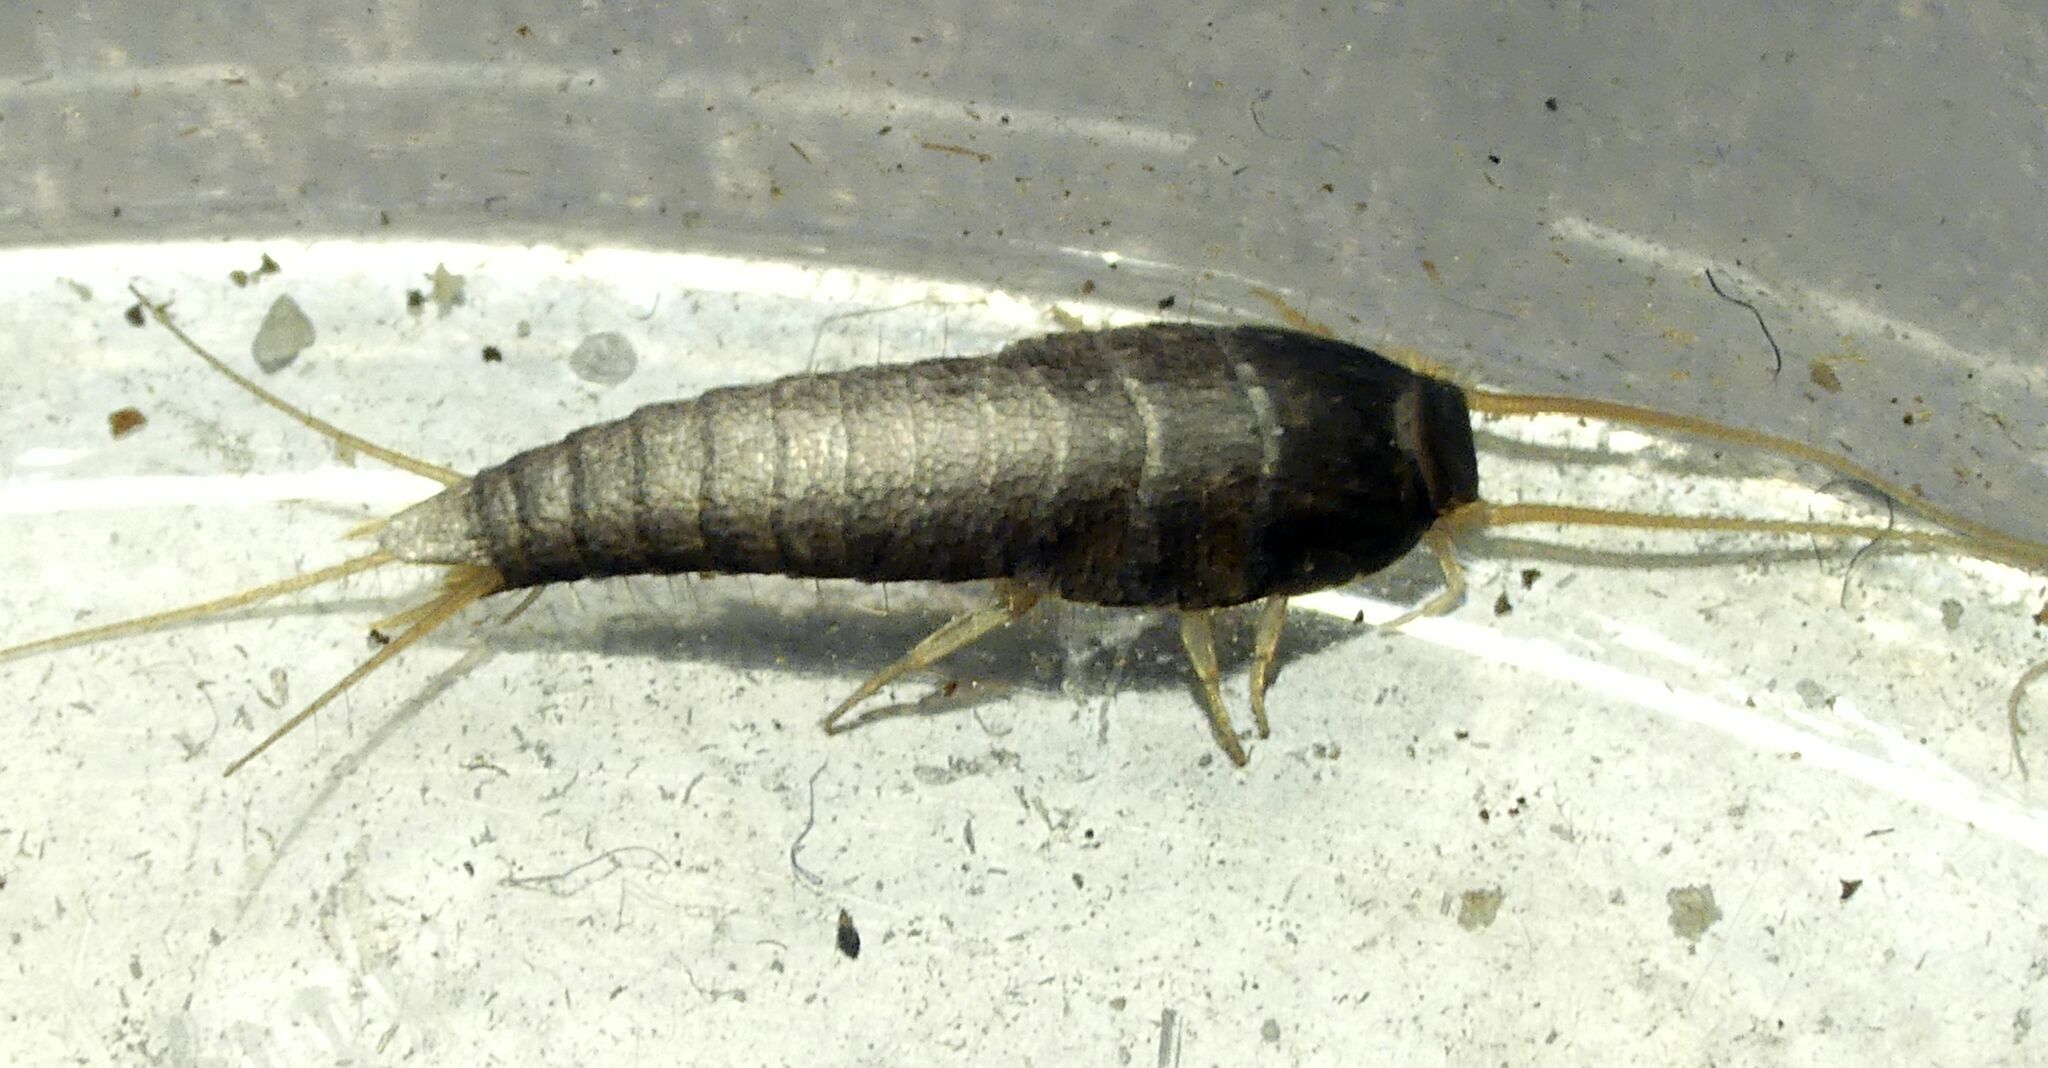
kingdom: Animalia
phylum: Arthropoda
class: Insecta
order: Zygentoma
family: Lepismatidae
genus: Lepisma
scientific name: Lepisma saccharinum
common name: Silverfish
